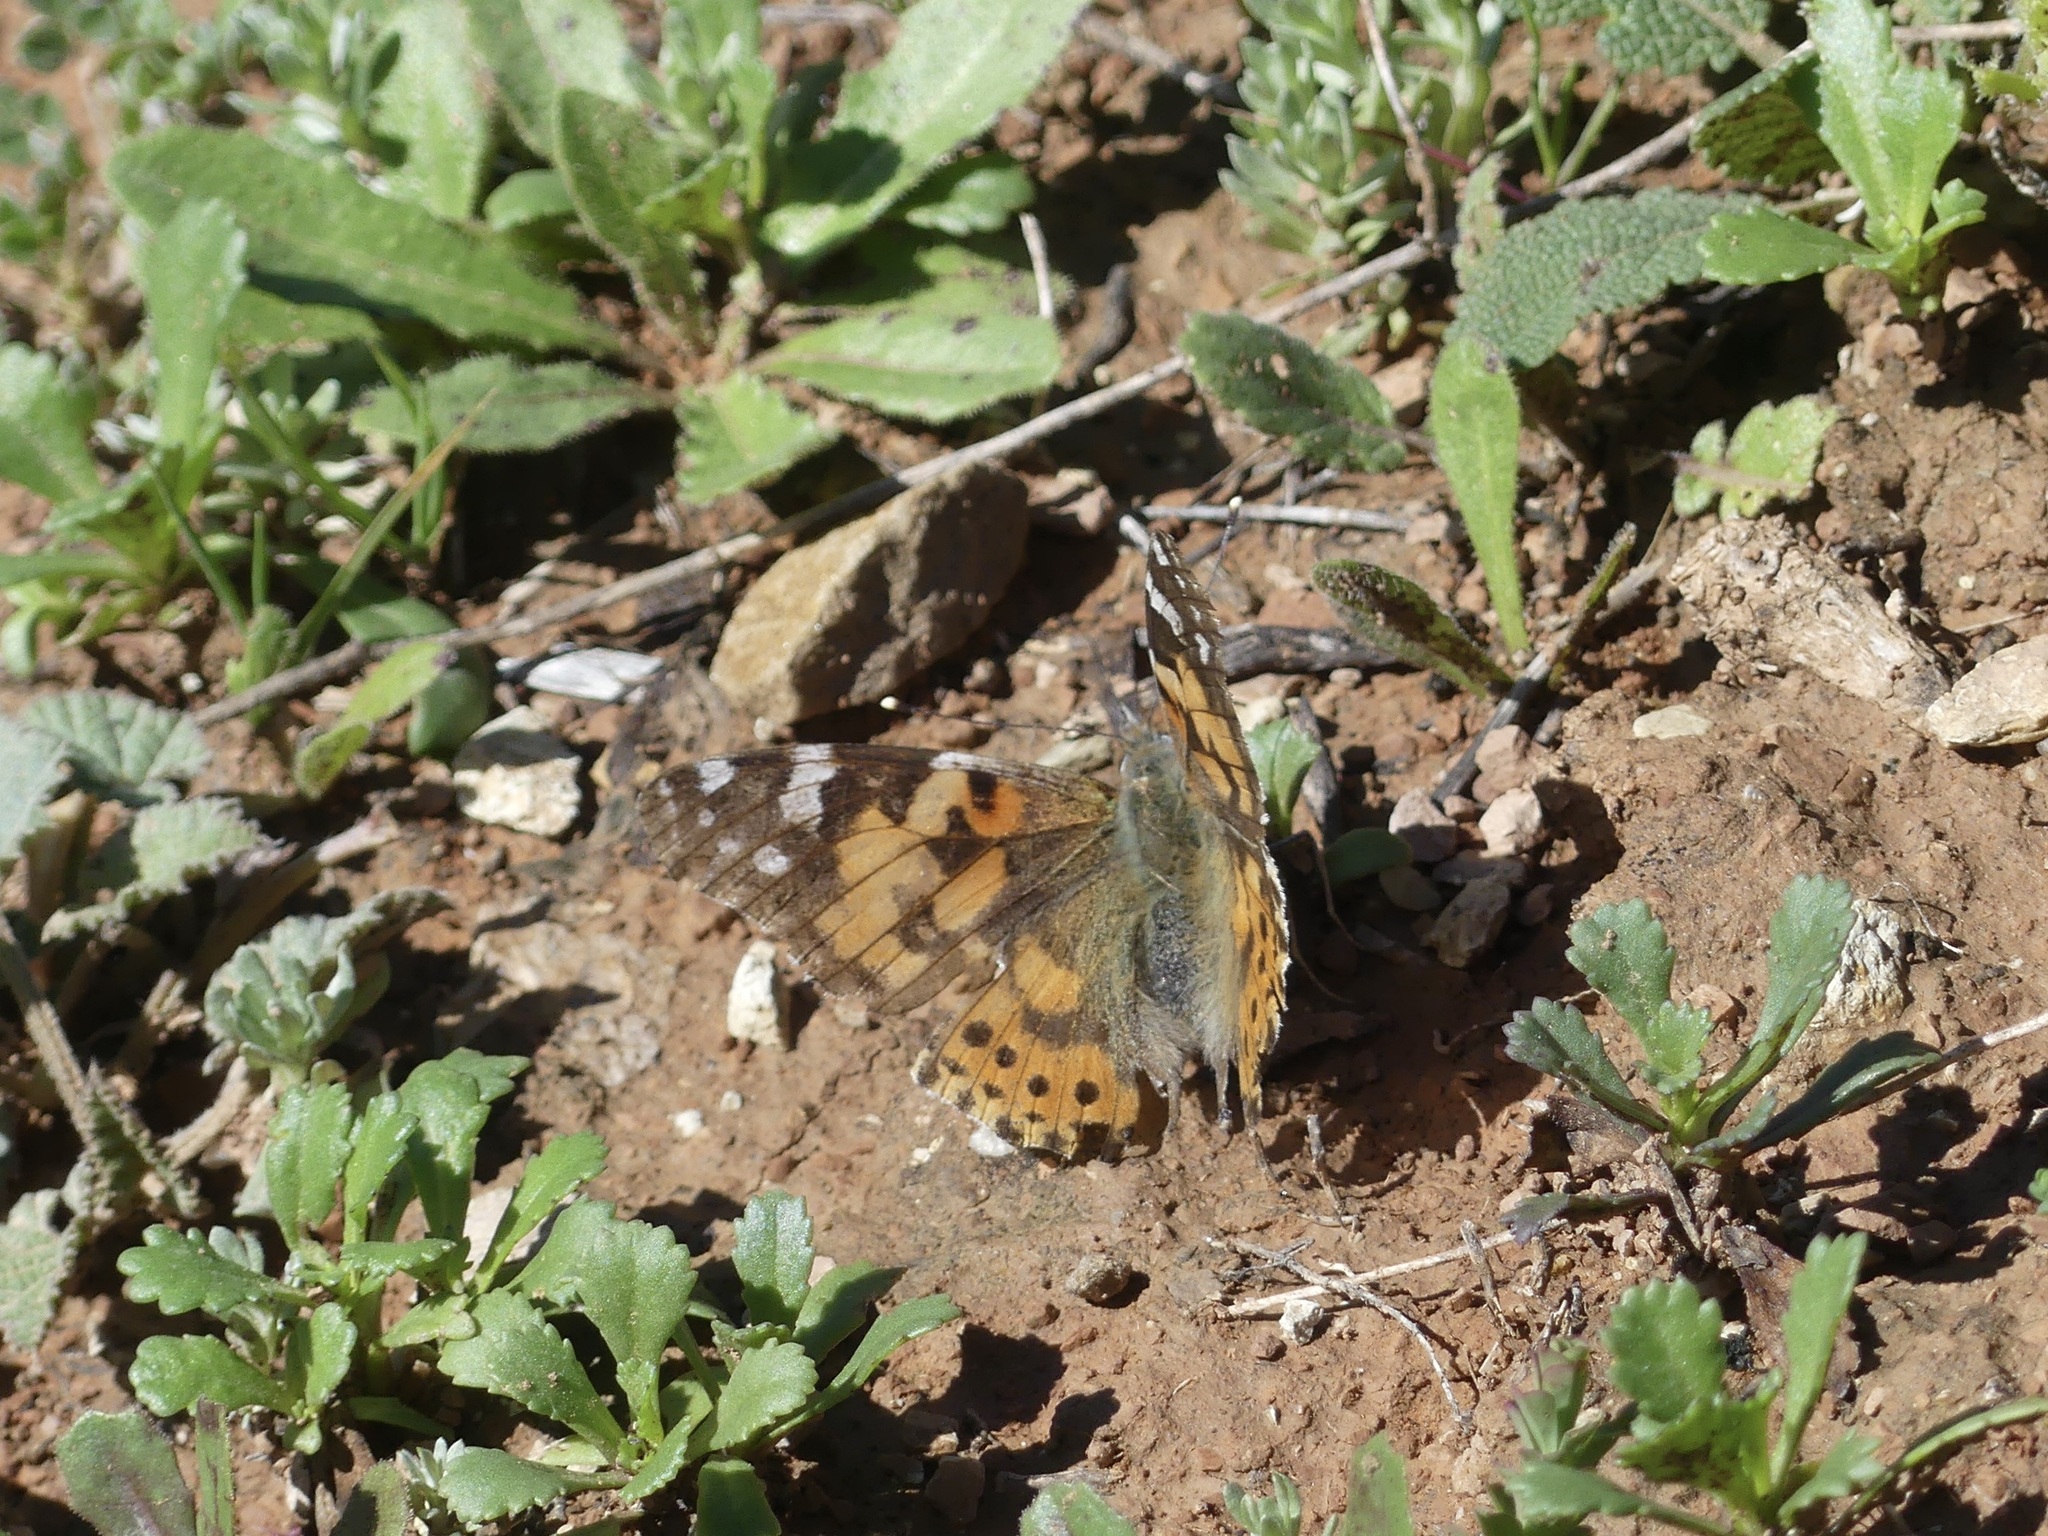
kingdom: Animalia
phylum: Arthropoda
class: Insecta
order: Lepidoptera
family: Nymphalidae
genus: Vanessa
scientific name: Vanessa cardui
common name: Painted lady
